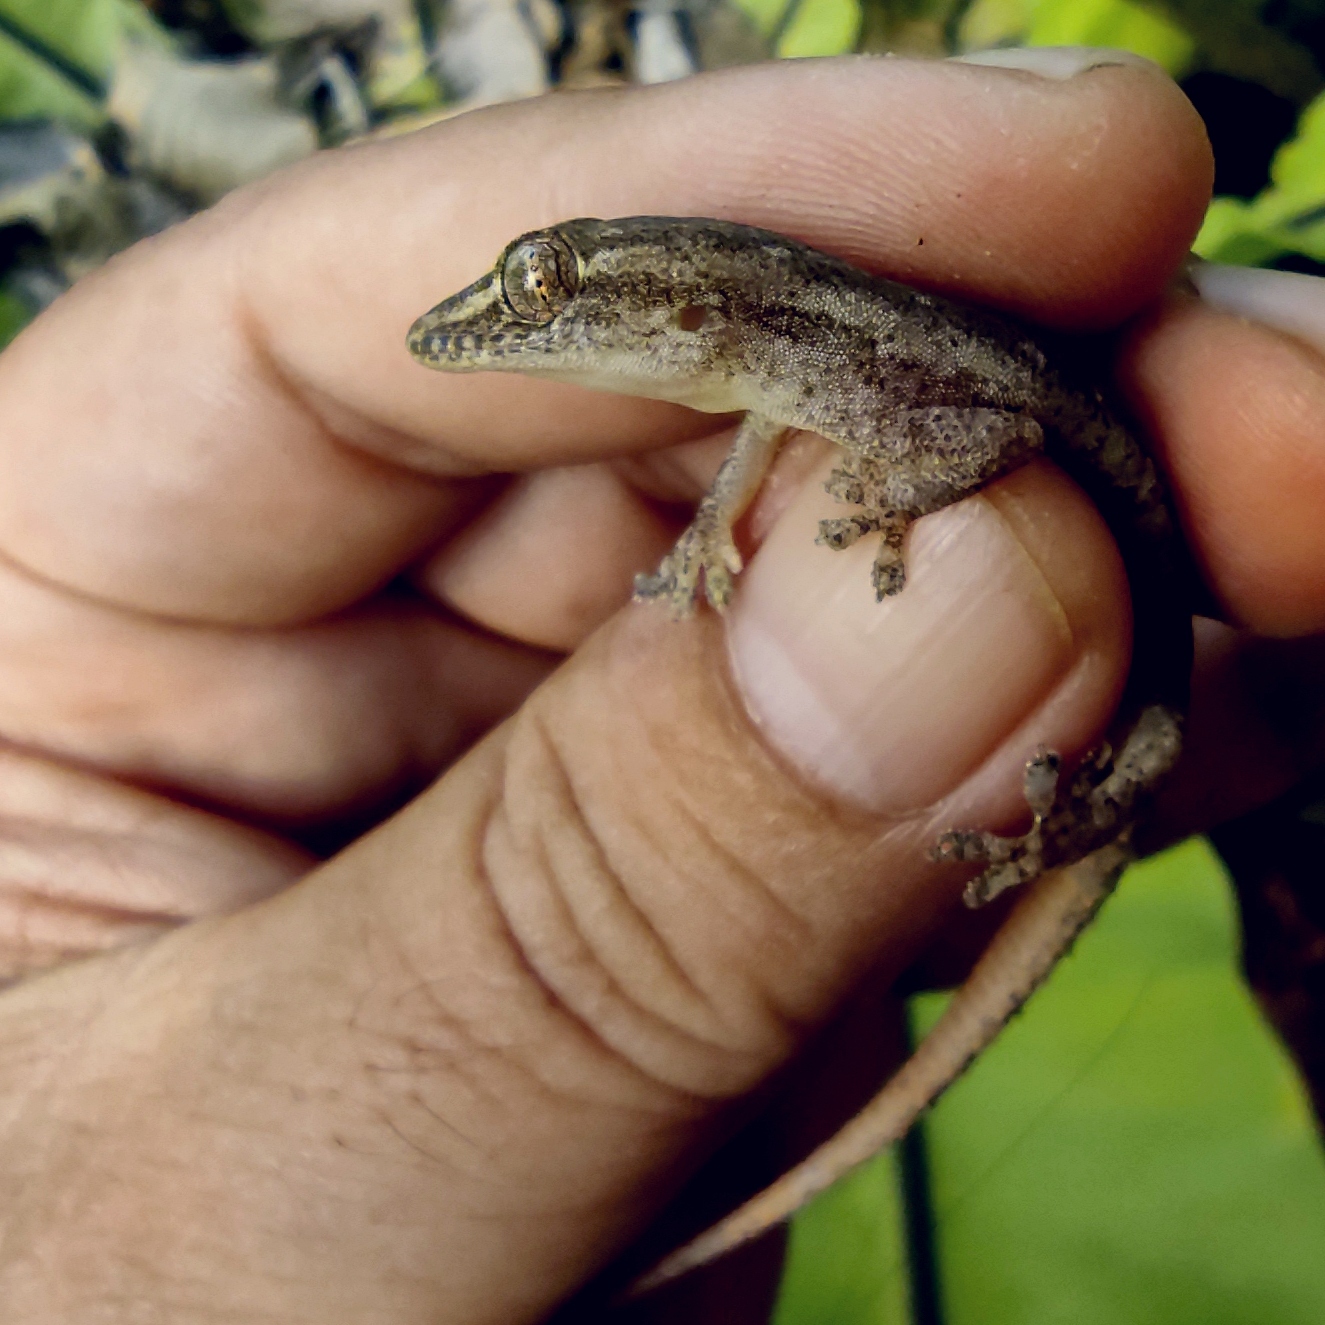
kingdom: Animalia
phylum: Chordata
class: Squamata
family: Gekkonidae
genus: Hemidactylus
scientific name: Hemidactylus frenatus
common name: Common house gecko
